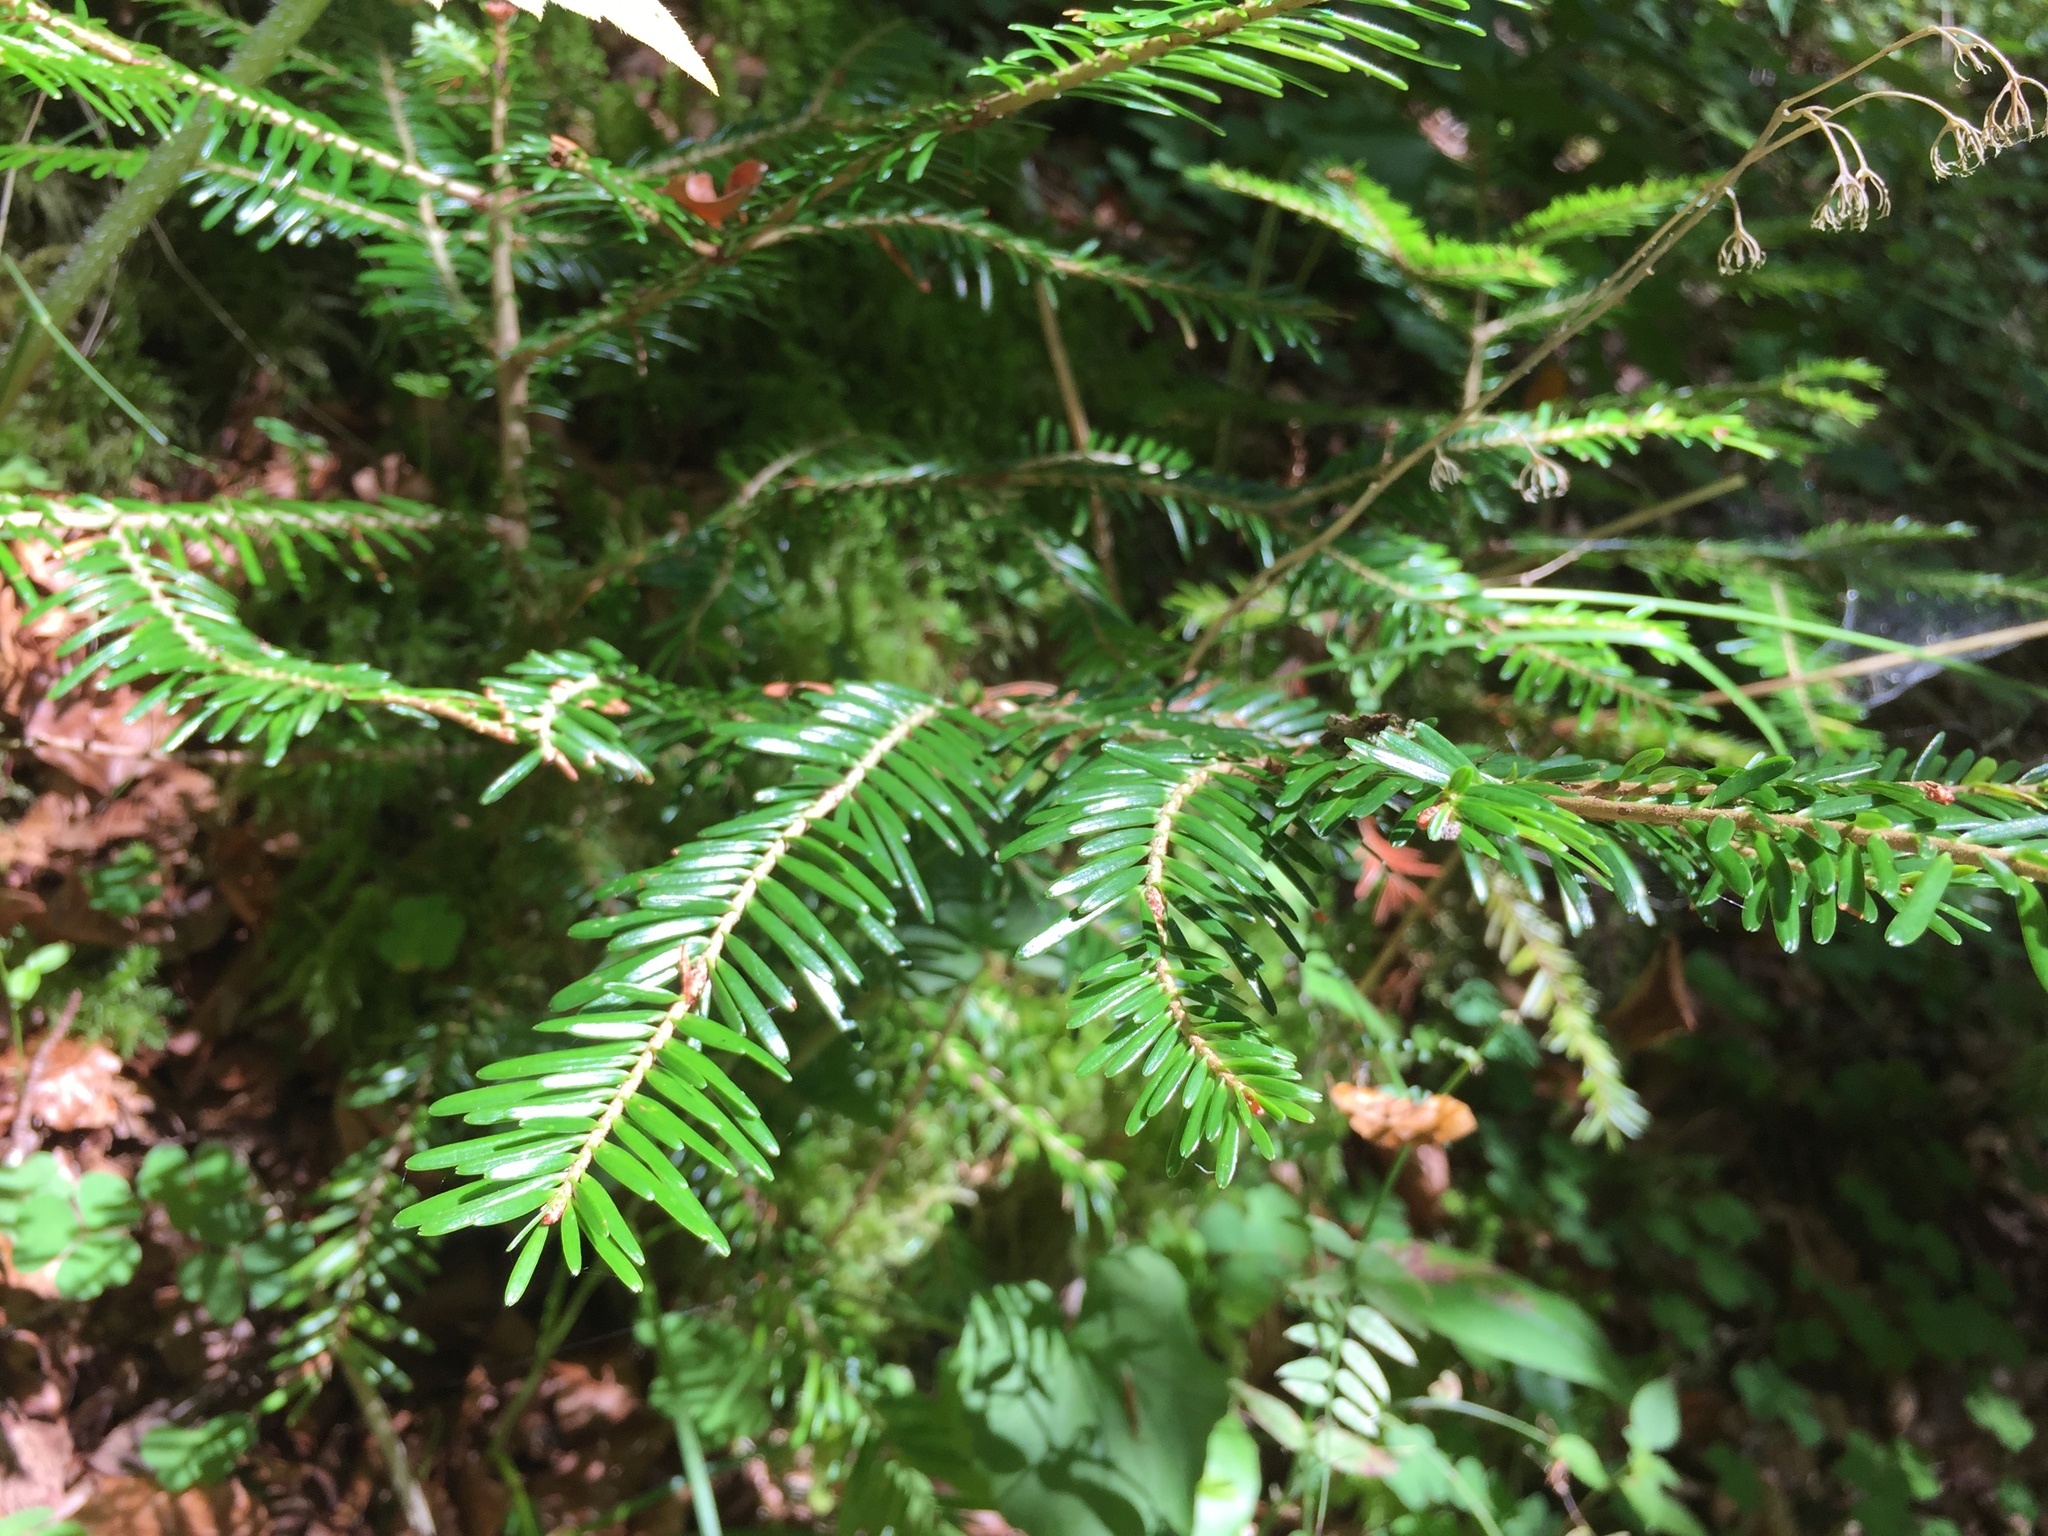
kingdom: Plantae
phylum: Tracheophyta
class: Pinopsida
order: Pinales
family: Pinaceae
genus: Abies
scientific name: Abies alba
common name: Silver fir
